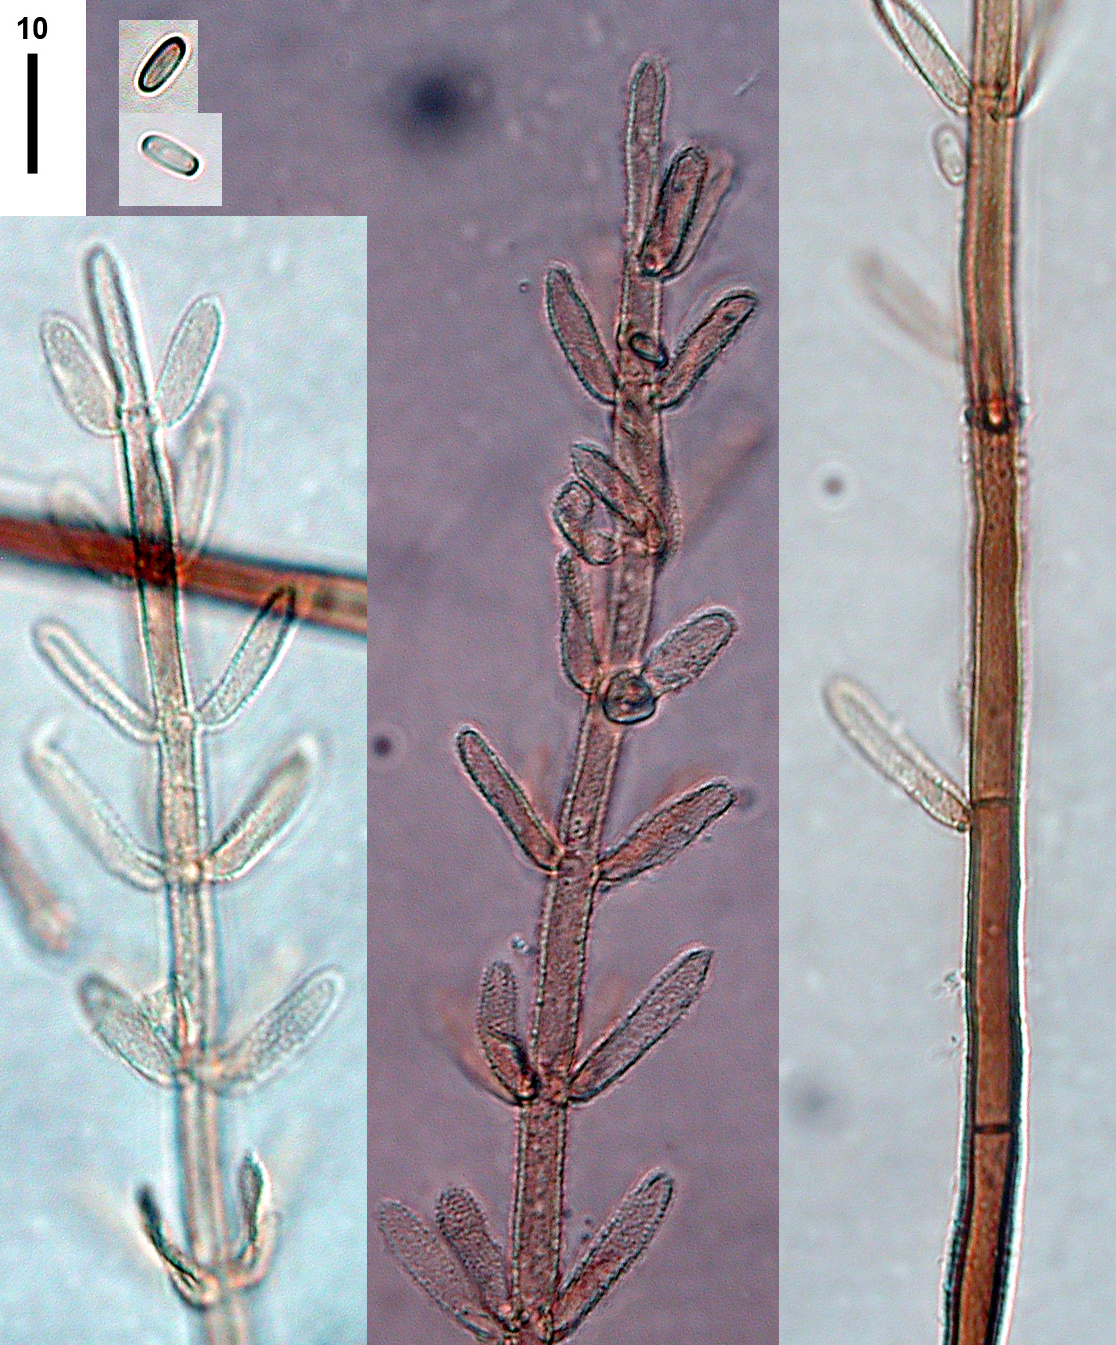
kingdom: Fungi
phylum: Ascomycota
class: Sordariomycetes
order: Glomerellales
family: Plectosphaerellaceae
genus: Stachylidium
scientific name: Stachylidium bicolor
